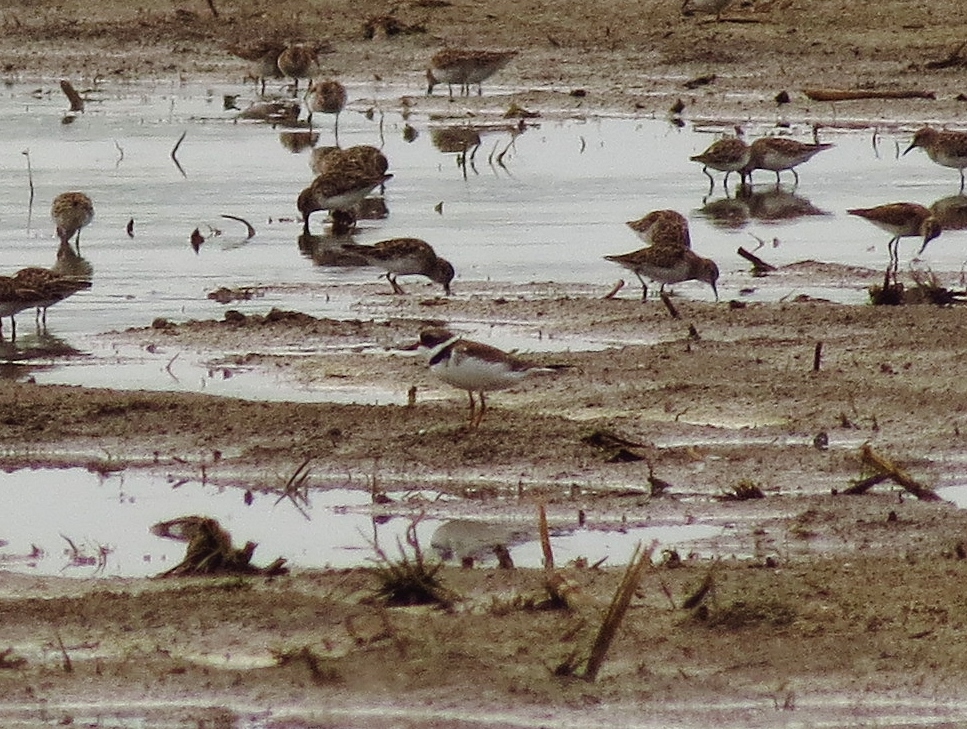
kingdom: Animalia
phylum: Chordata
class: Aves
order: Charadriiformes
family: Charadriidae
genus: Charadrius
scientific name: Charadrius semipalmatus
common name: Semipalmated plover
